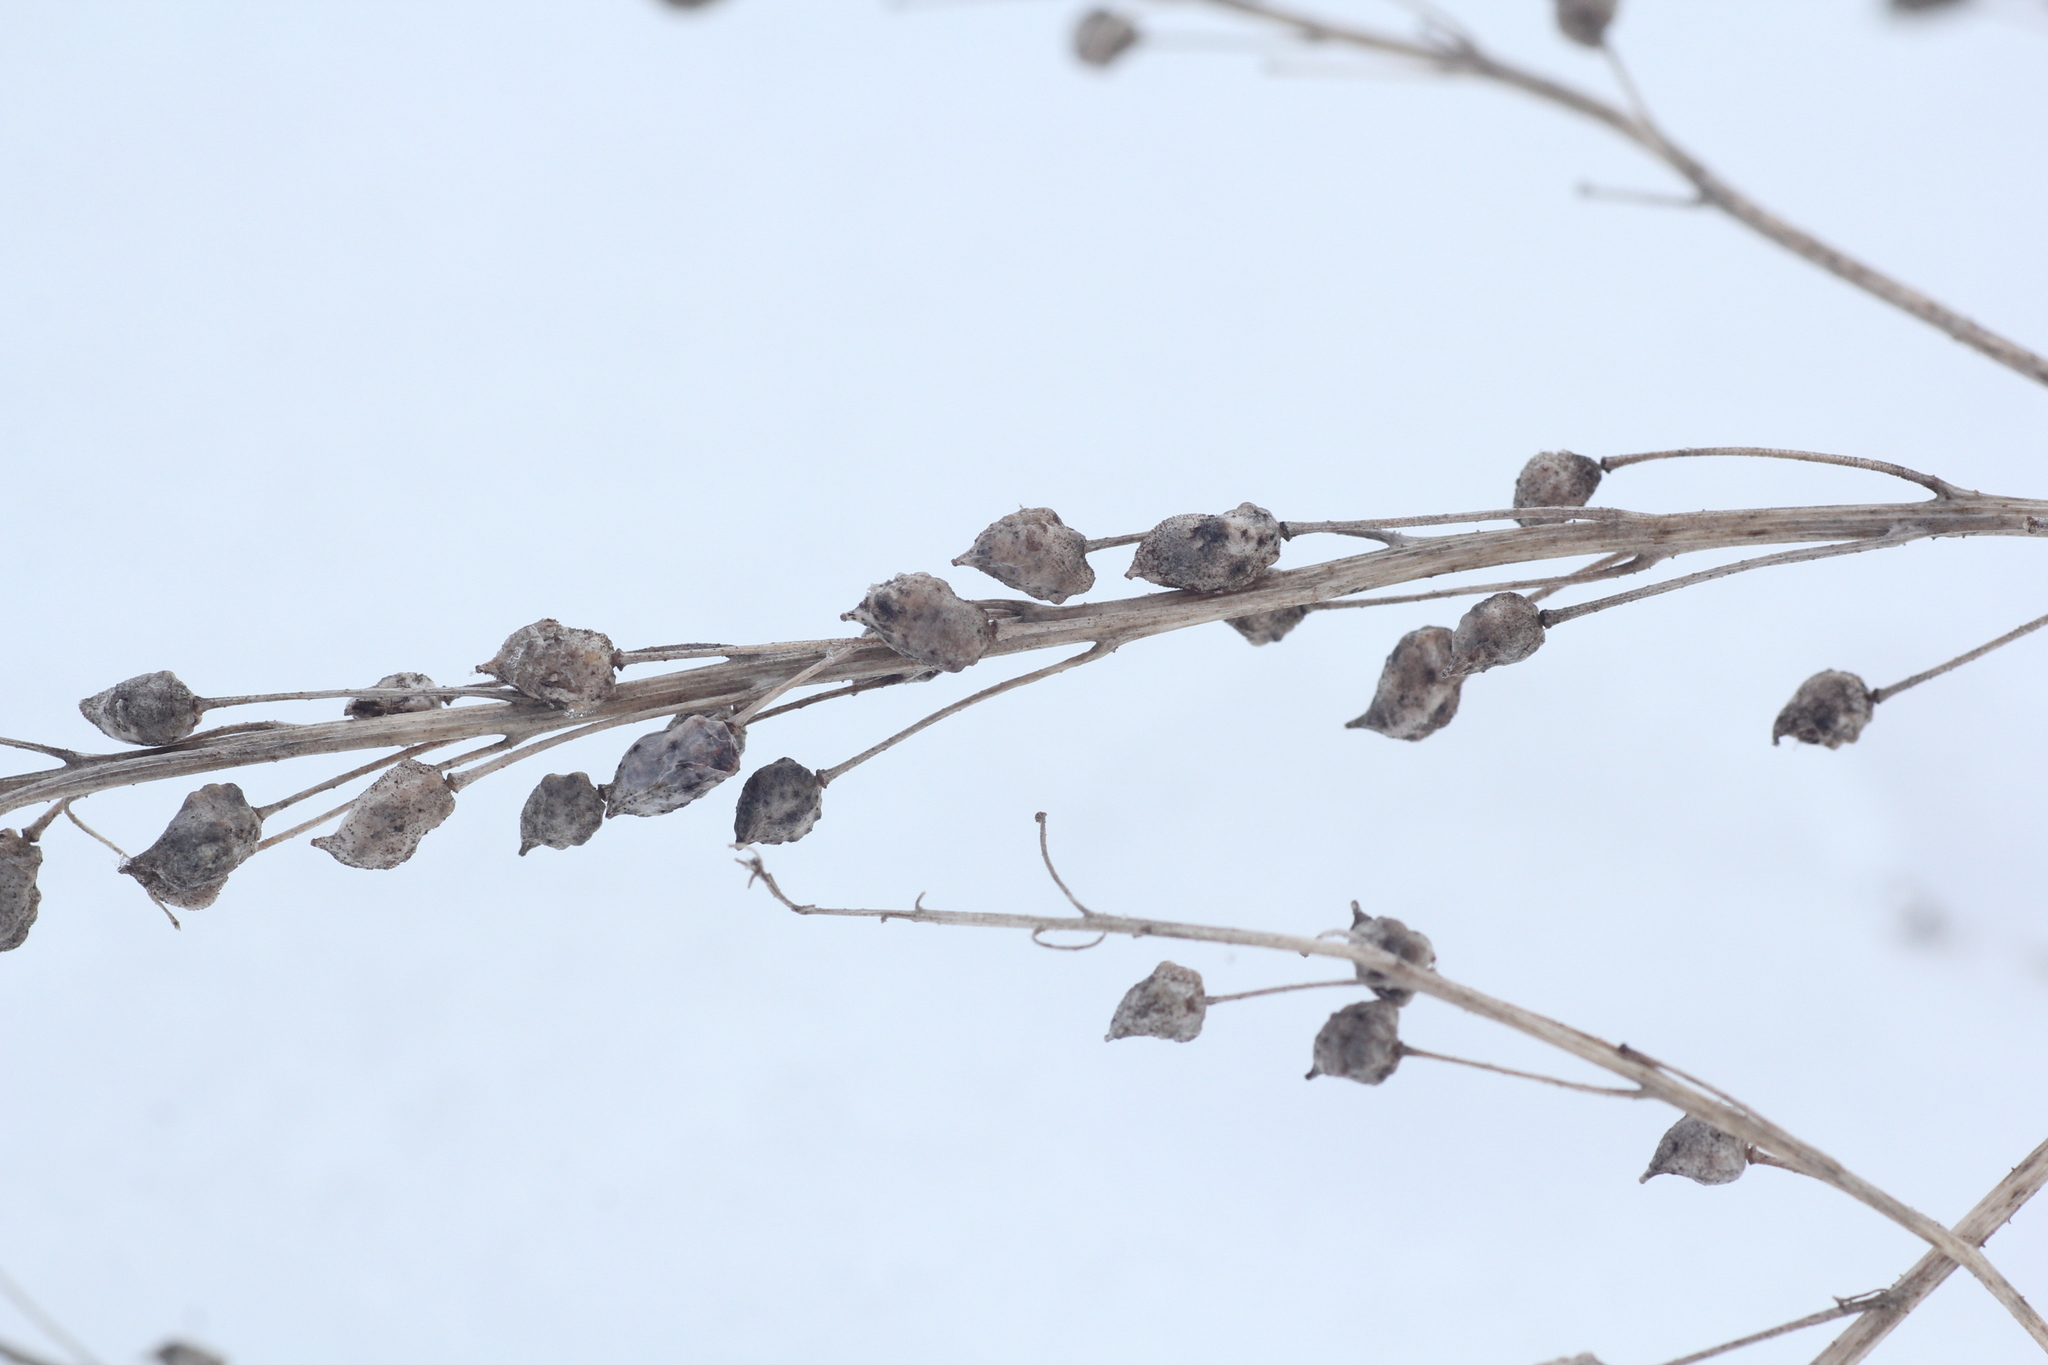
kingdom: Plantae
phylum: Tracheophyta
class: Magnoliopsida
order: Brassicales
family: Brassicaceae
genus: Bunias
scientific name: Bunias orientalis
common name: Warty-cabbage
